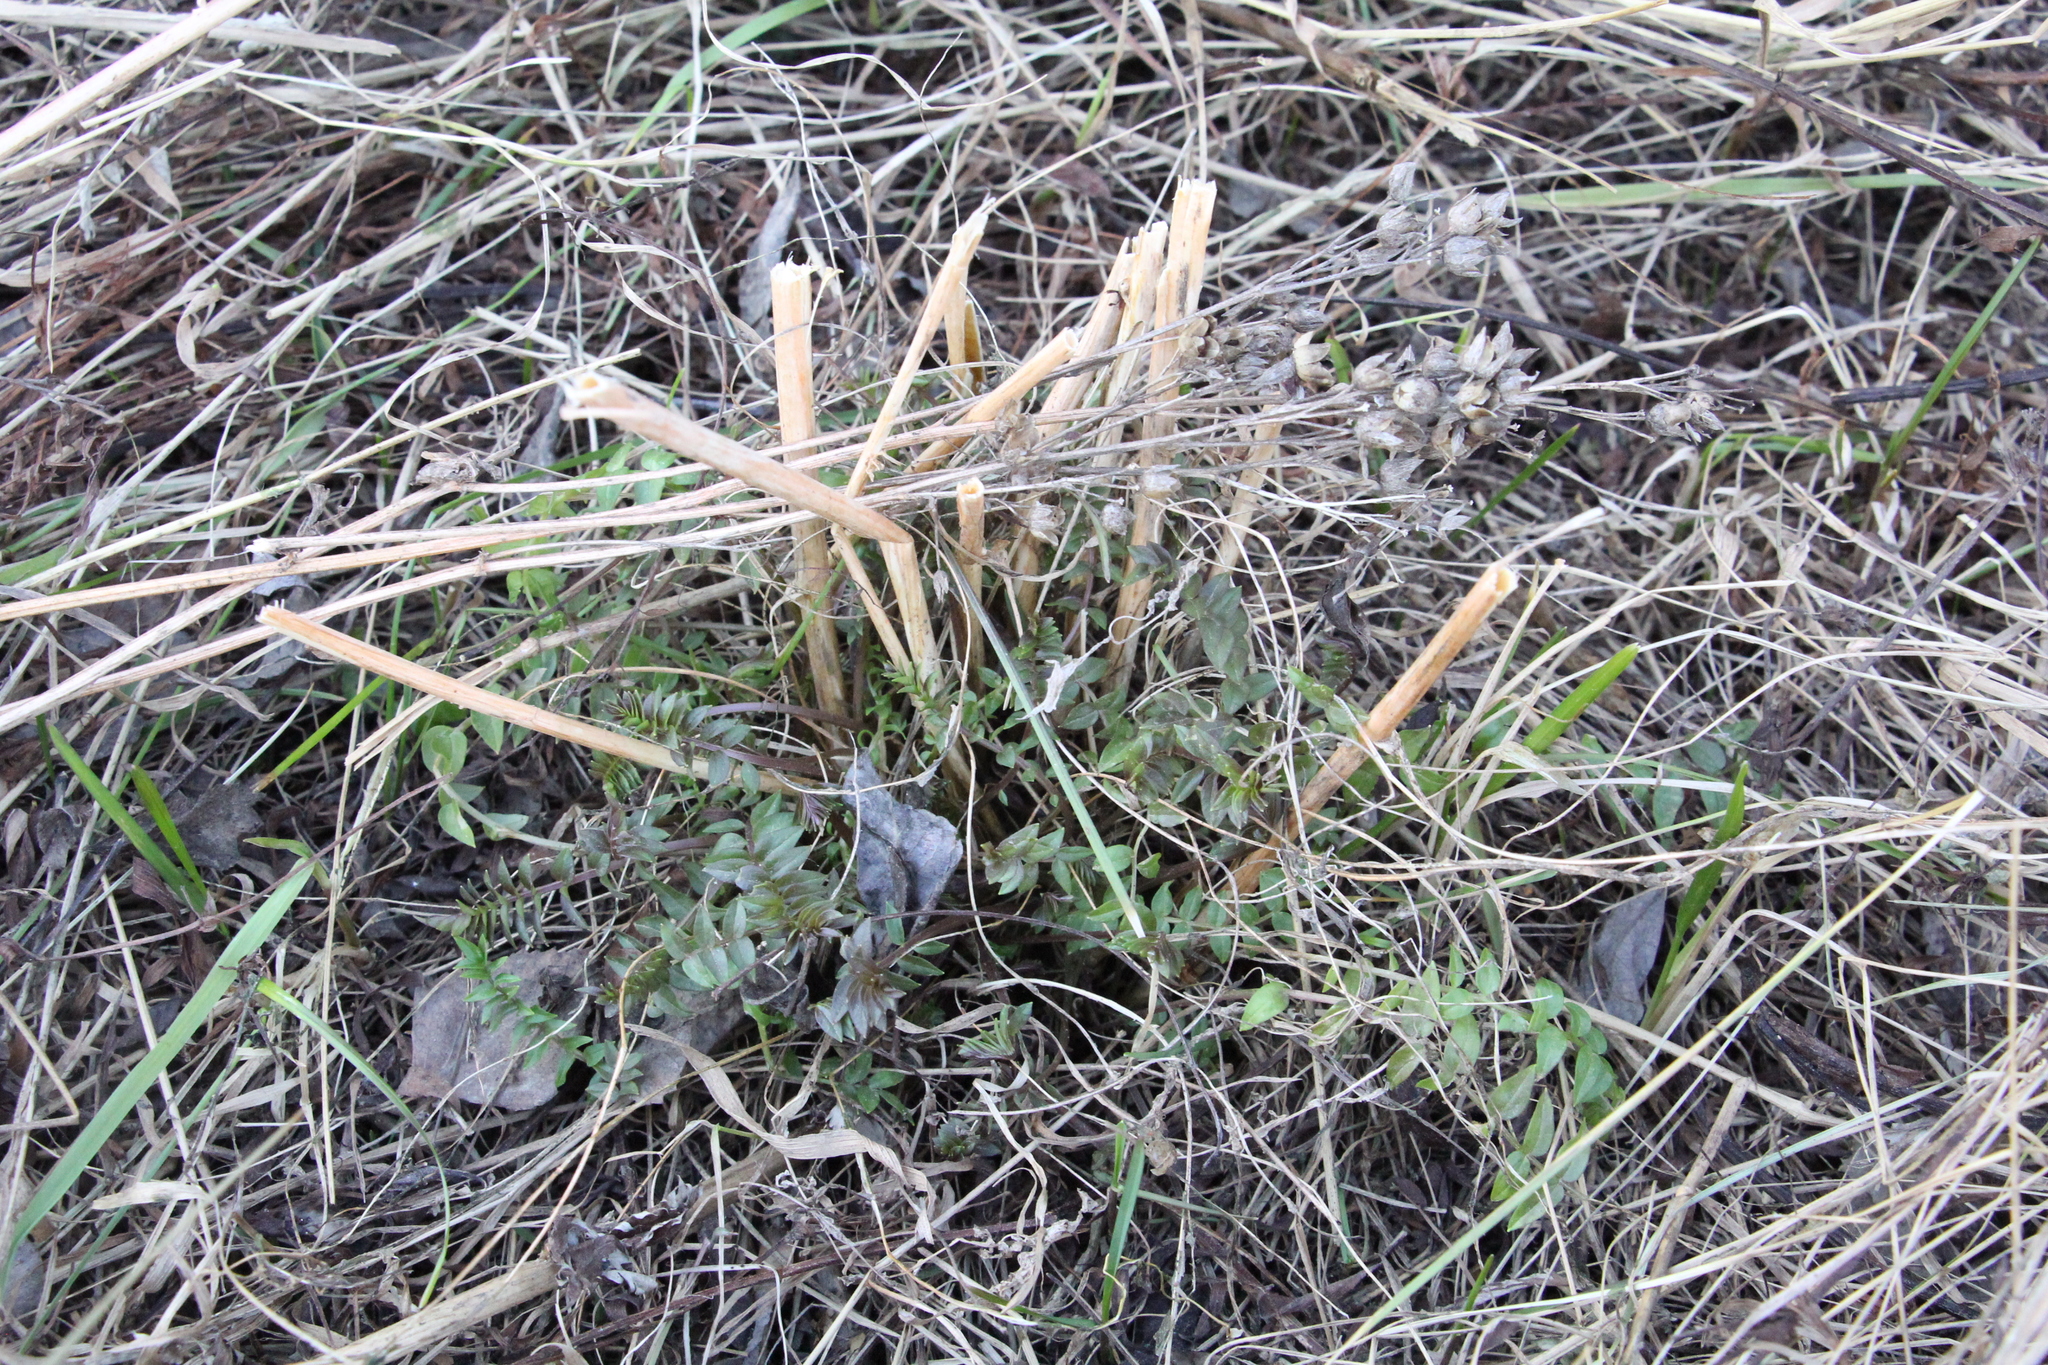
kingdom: Plantae
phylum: Tracheophyta
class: Magnoliopsida
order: Ericales
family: Polemoniaceae
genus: Polemonium
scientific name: Polemonium caeruleum
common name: Jacob's-ladder
